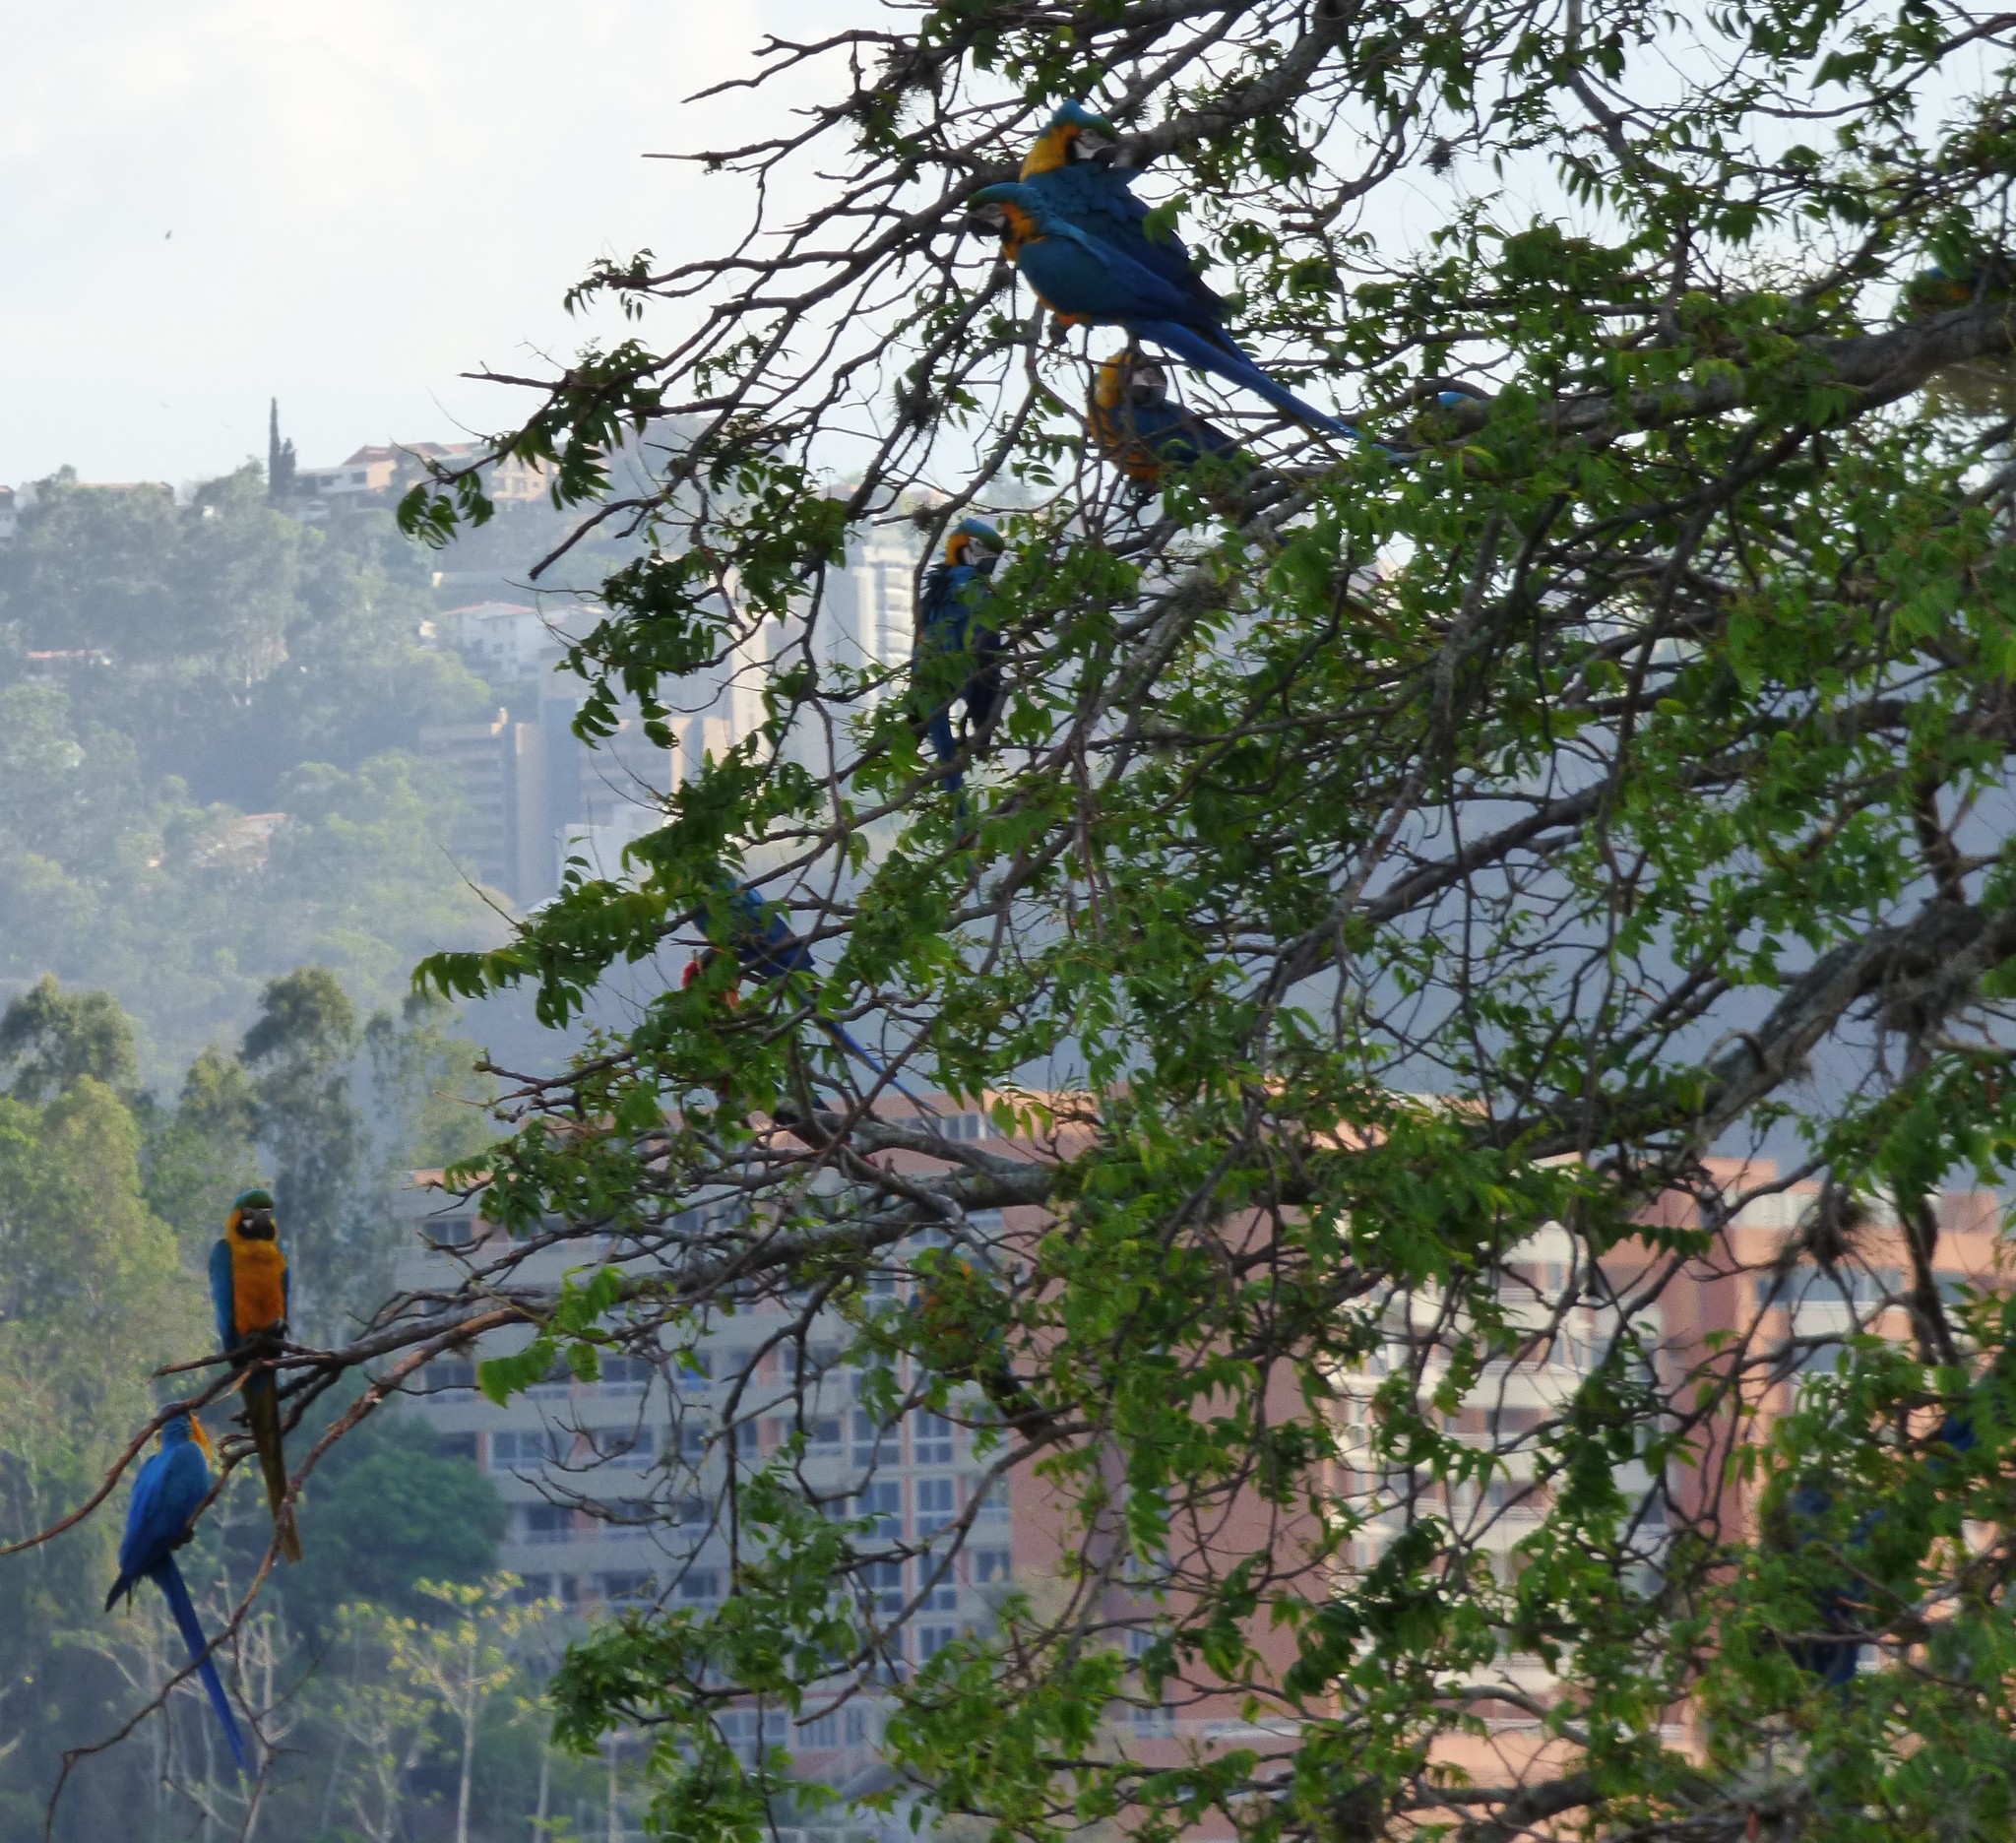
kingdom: Animalia
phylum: Chordata
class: Aves
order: Psittaciformes
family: Psittacidae
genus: Ara
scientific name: Ara ararauna
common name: Blue-and-yellow macaw
